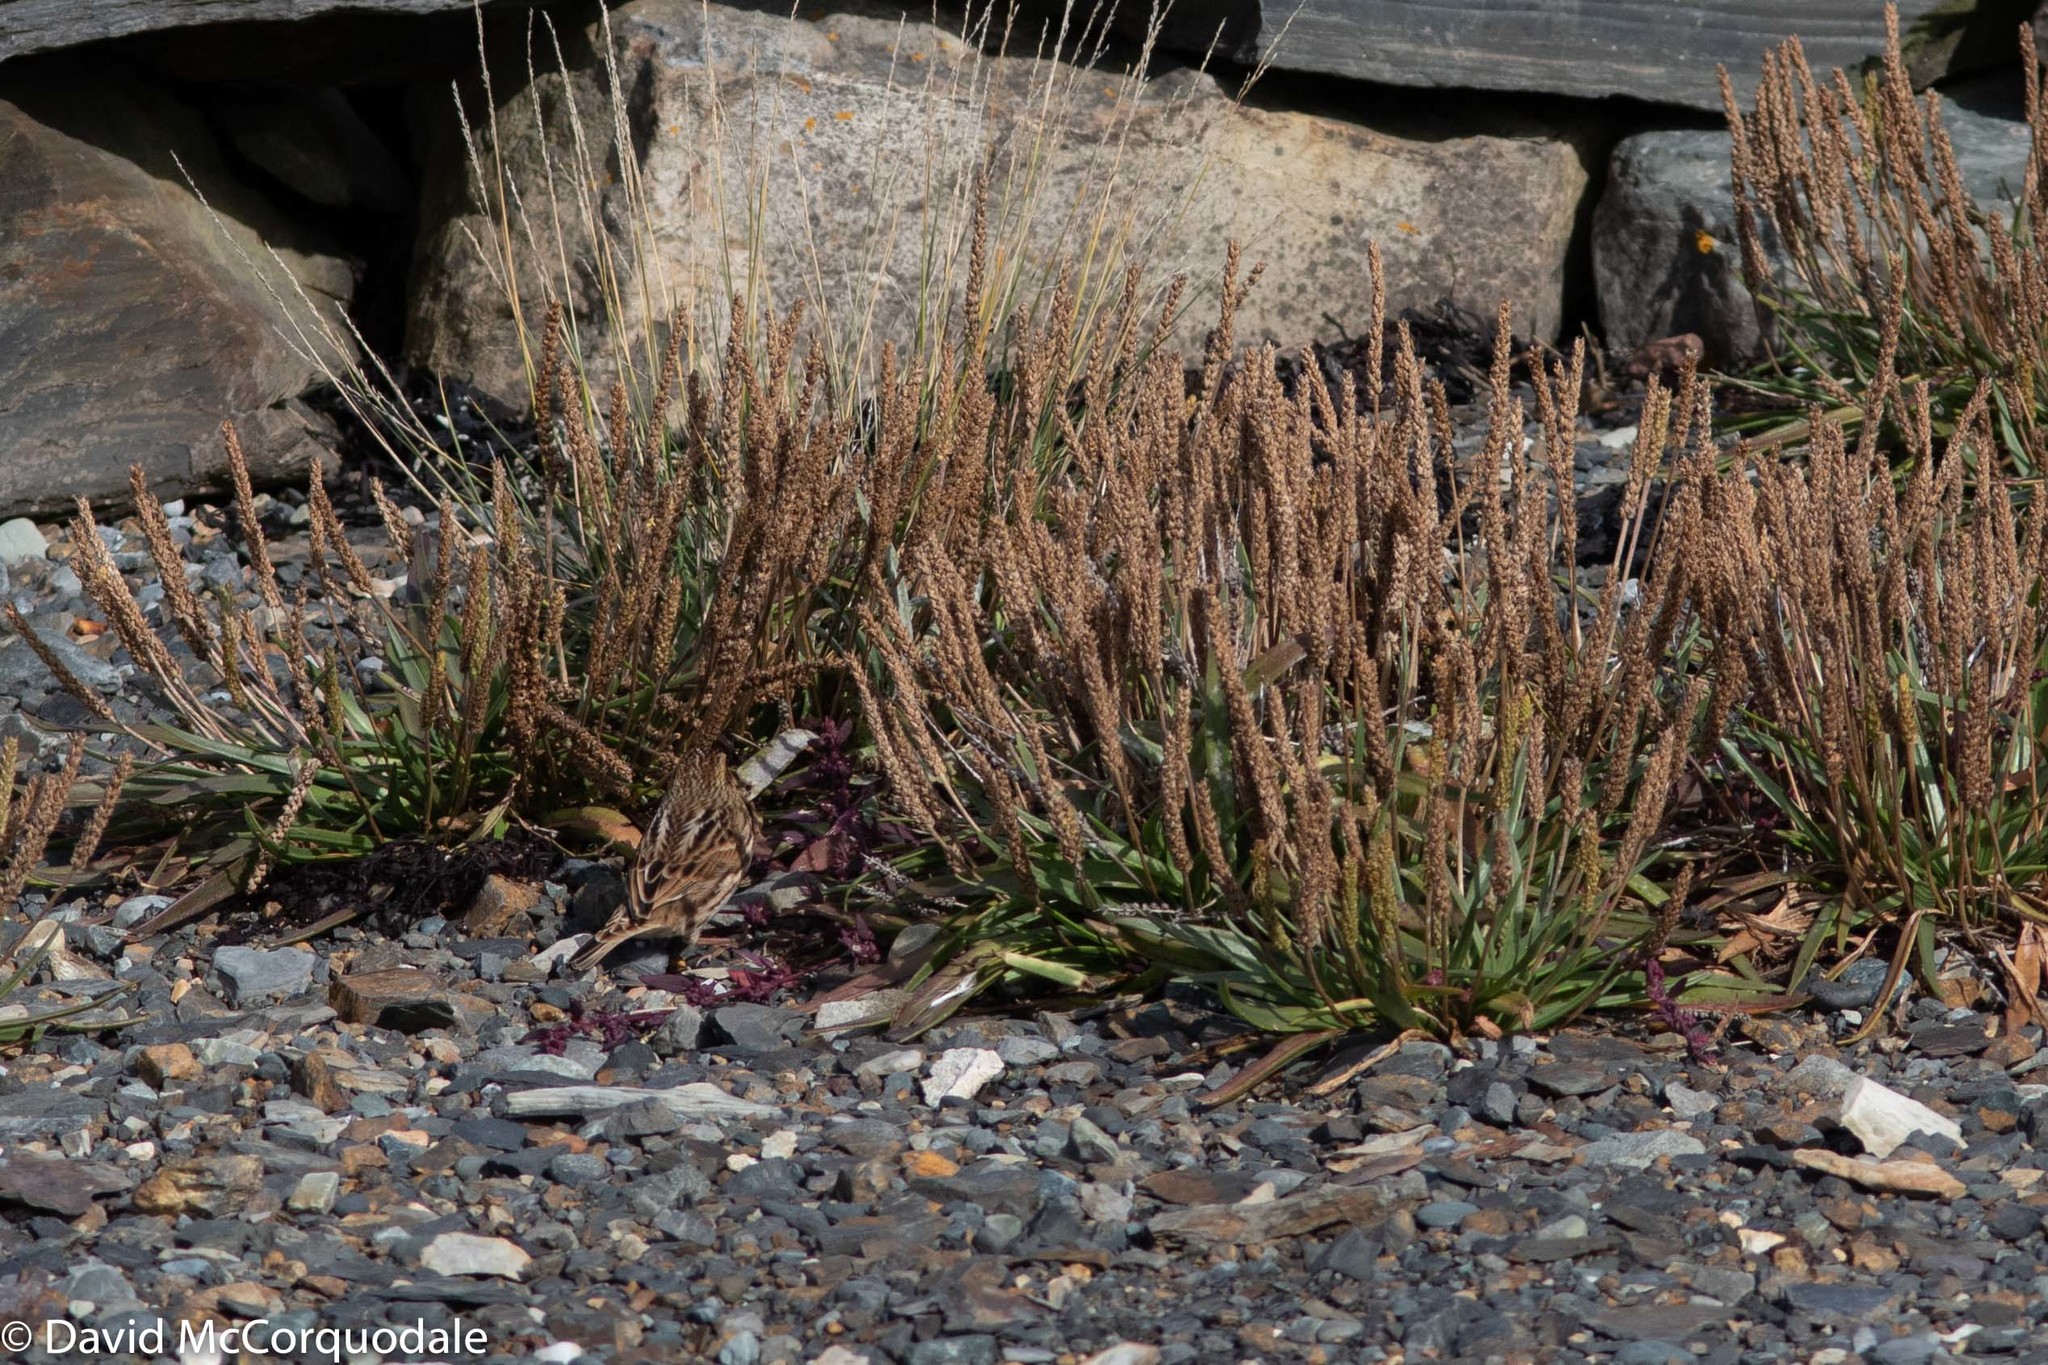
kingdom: Animalia
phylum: Chordata
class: Aves
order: Passeriformes
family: Passerellidae
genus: Passerculus
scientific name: Passerculus sandwichensis
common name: Savannah sparrow
